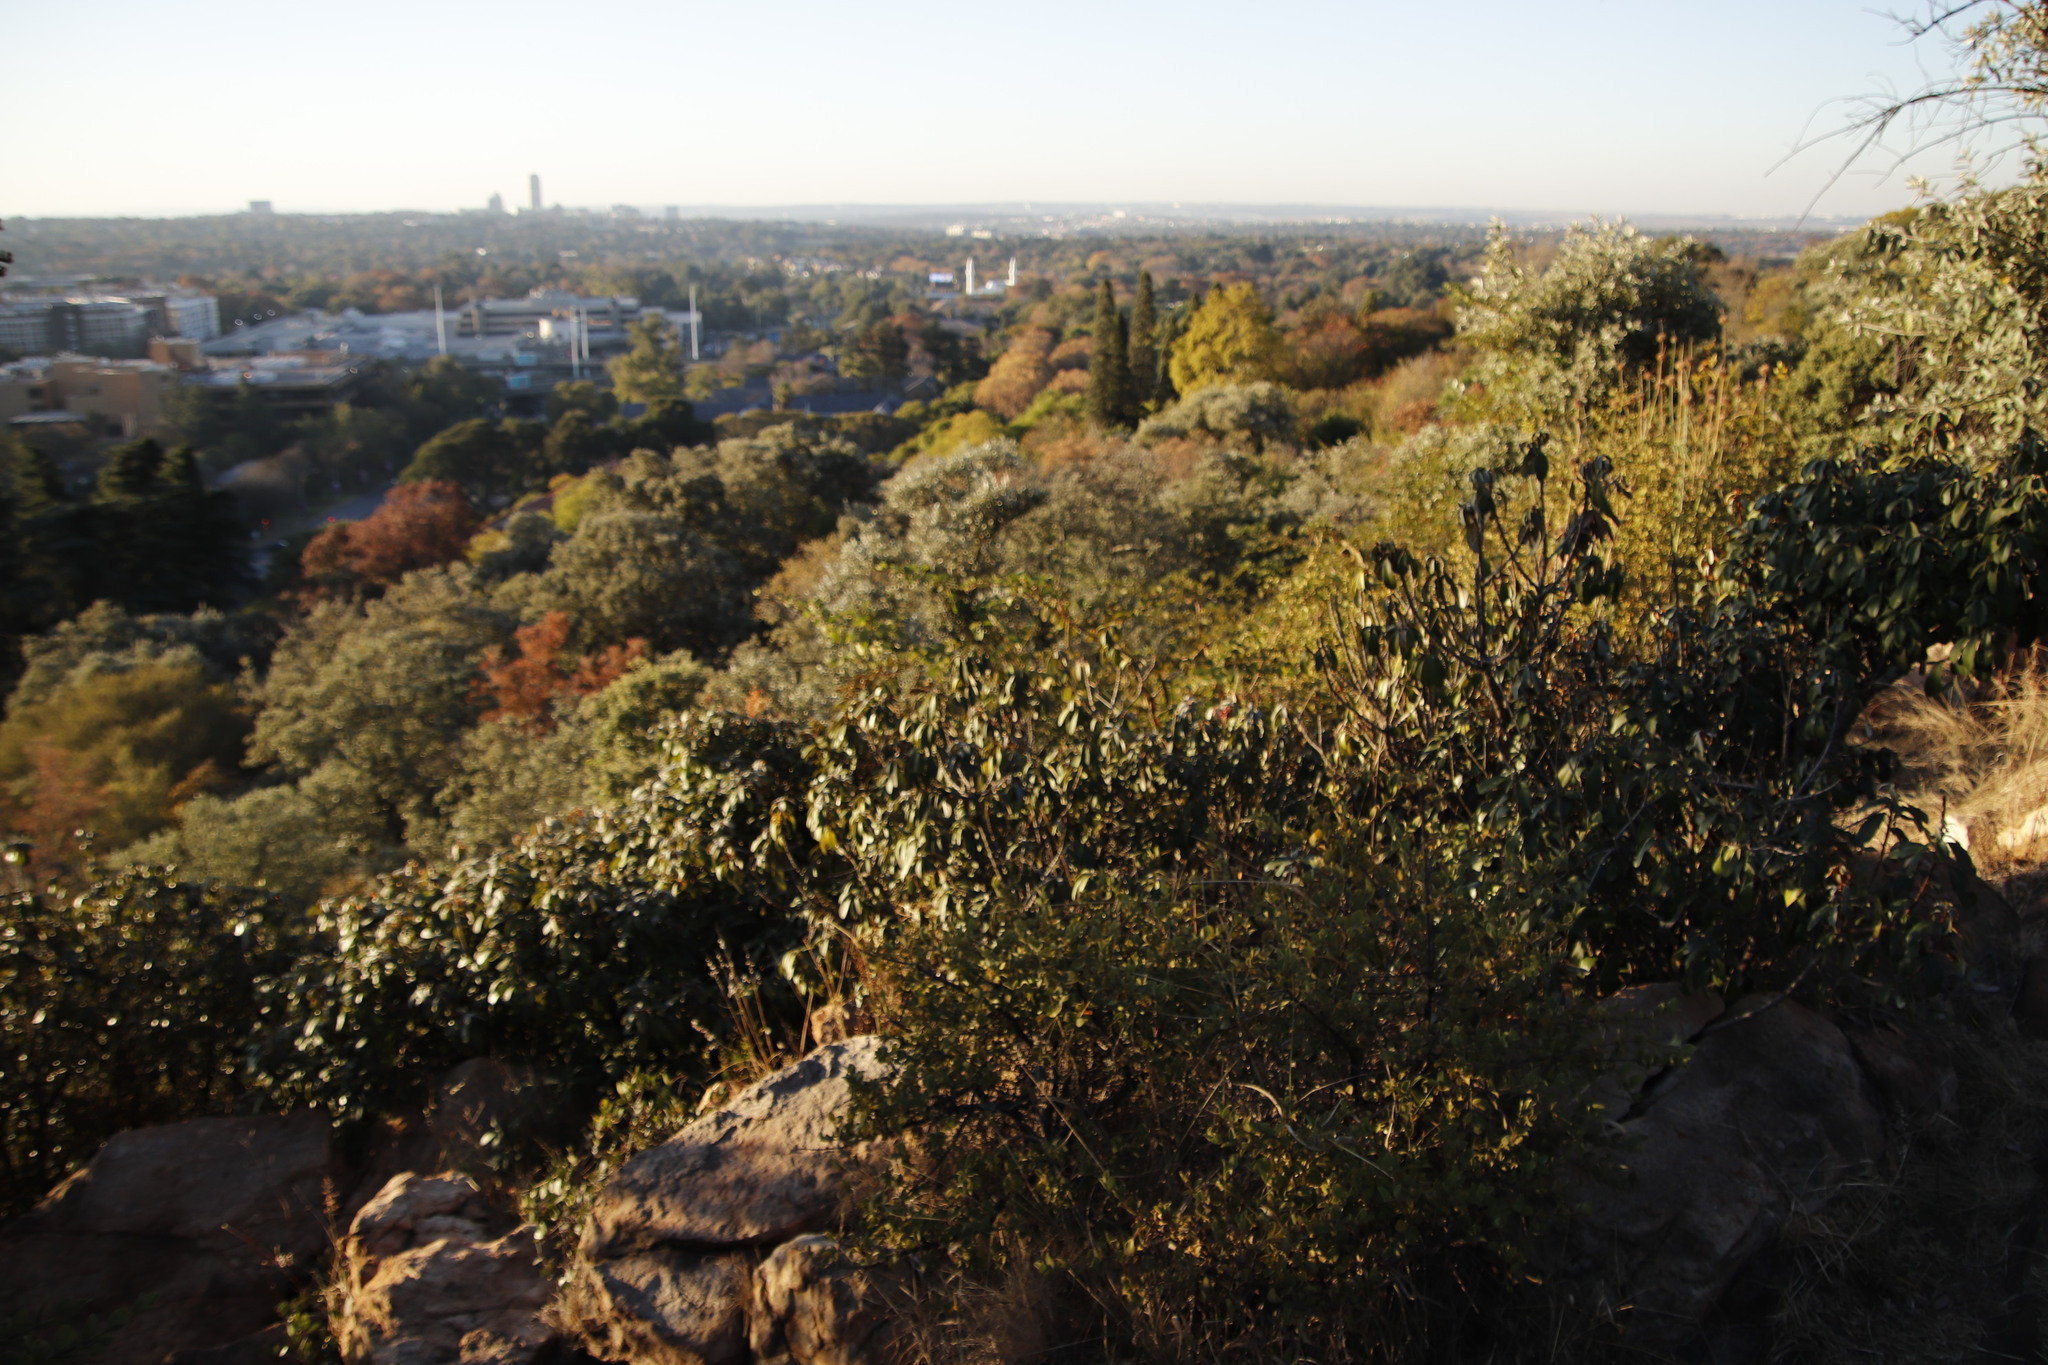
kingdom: Plantae
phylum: Tracheophyta
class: Magnoliopsida
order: Ericales
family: Sapotaceae
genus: Englerophytum
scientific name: Englerophytum magalismontanum
